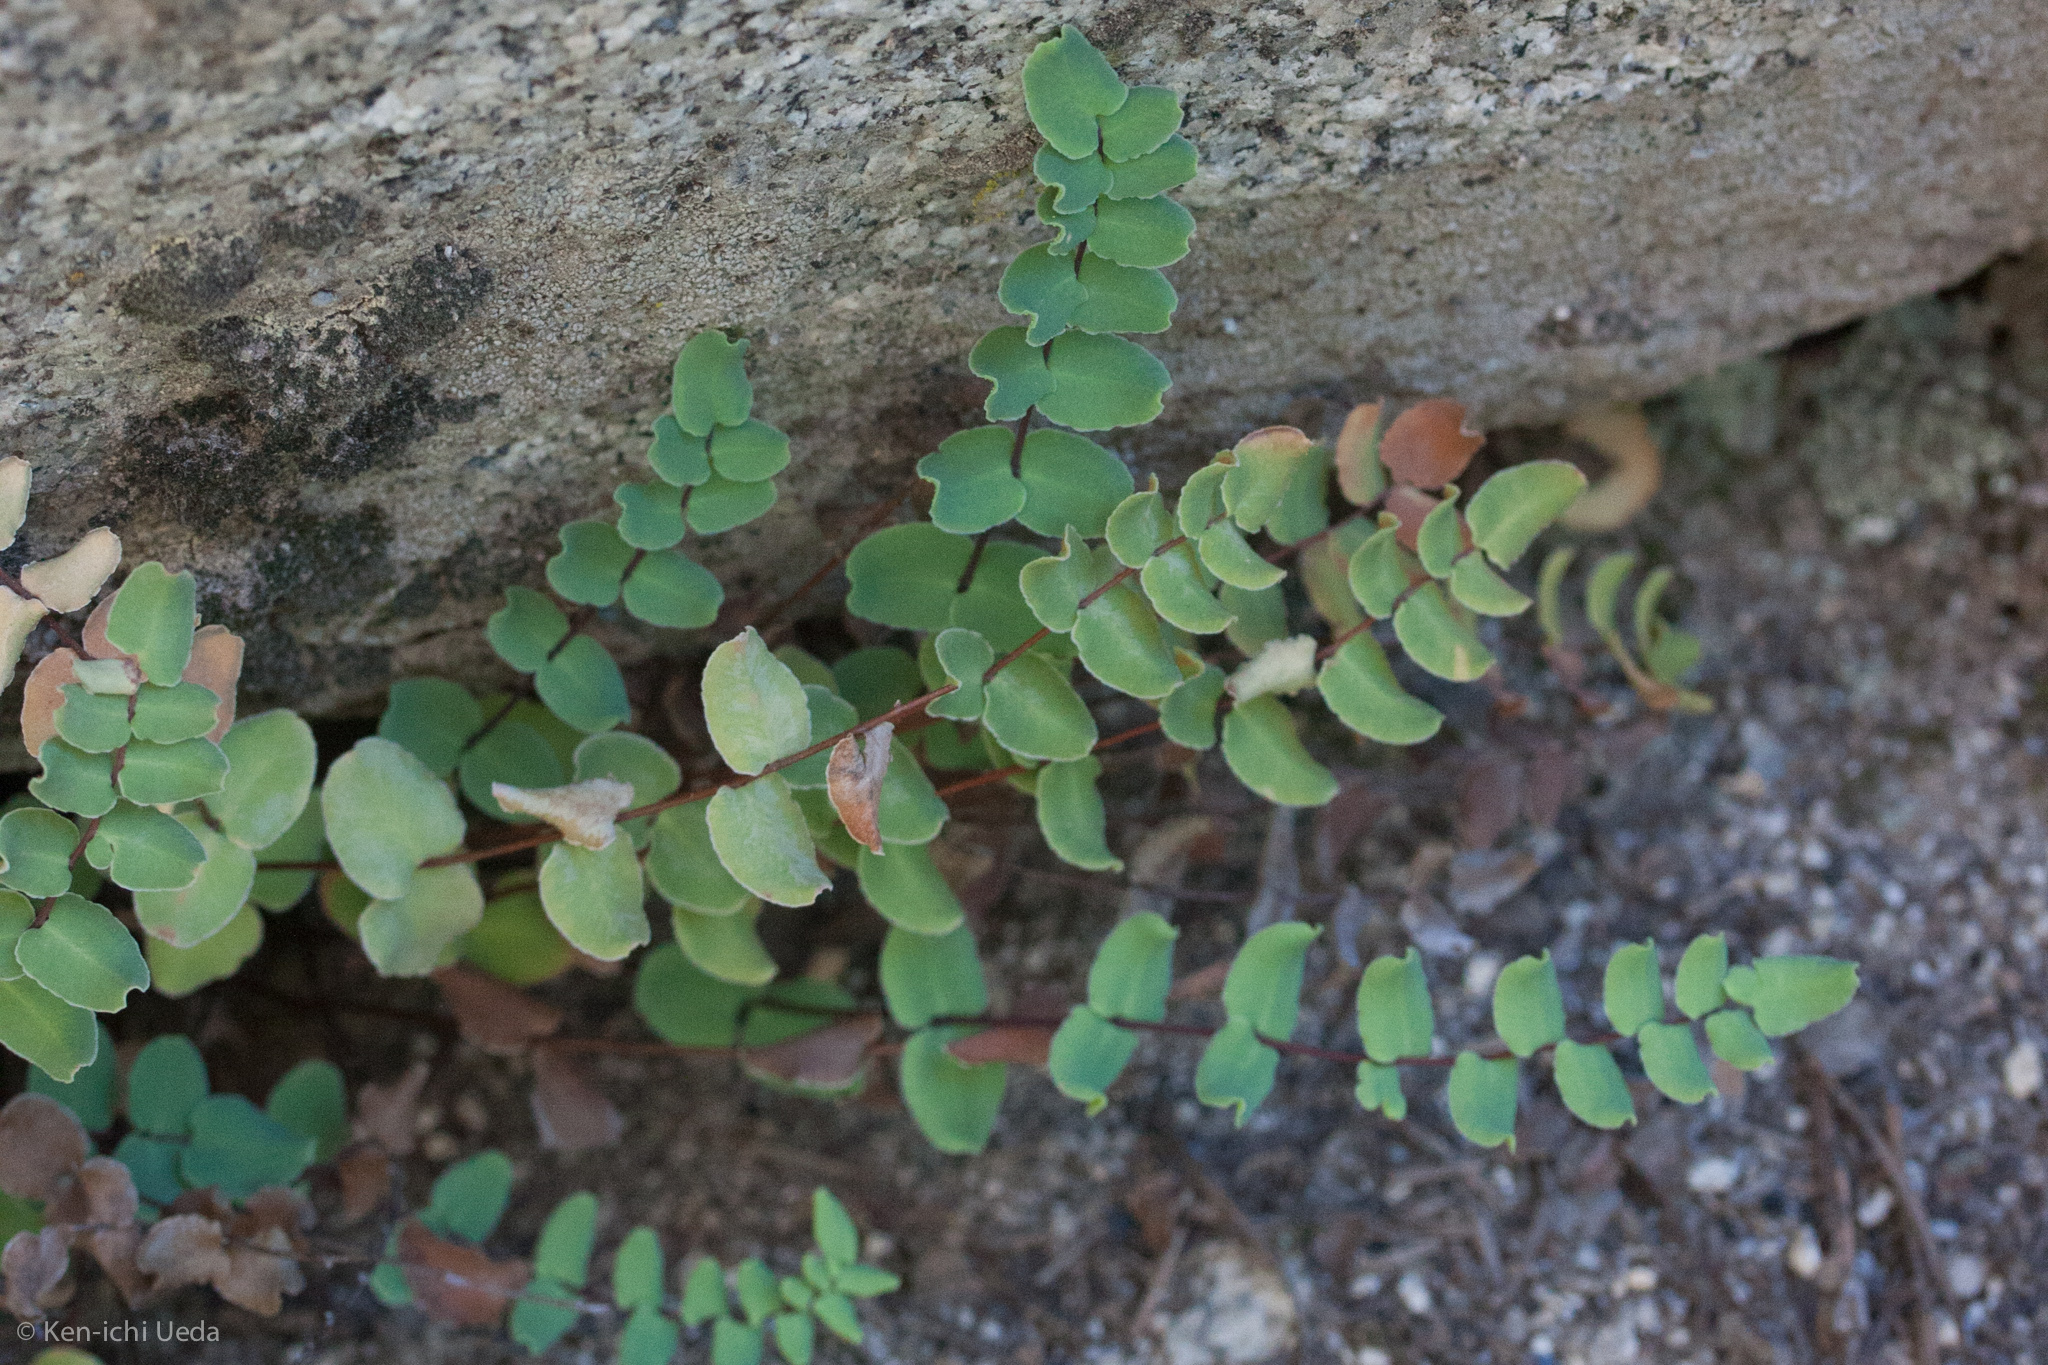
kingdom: Plantae
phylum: Tracheophyta
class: Polypodiopsida
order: Polypodiales
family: Pteridaceae
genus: Pellaea
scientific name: Pellaea bridgesii
